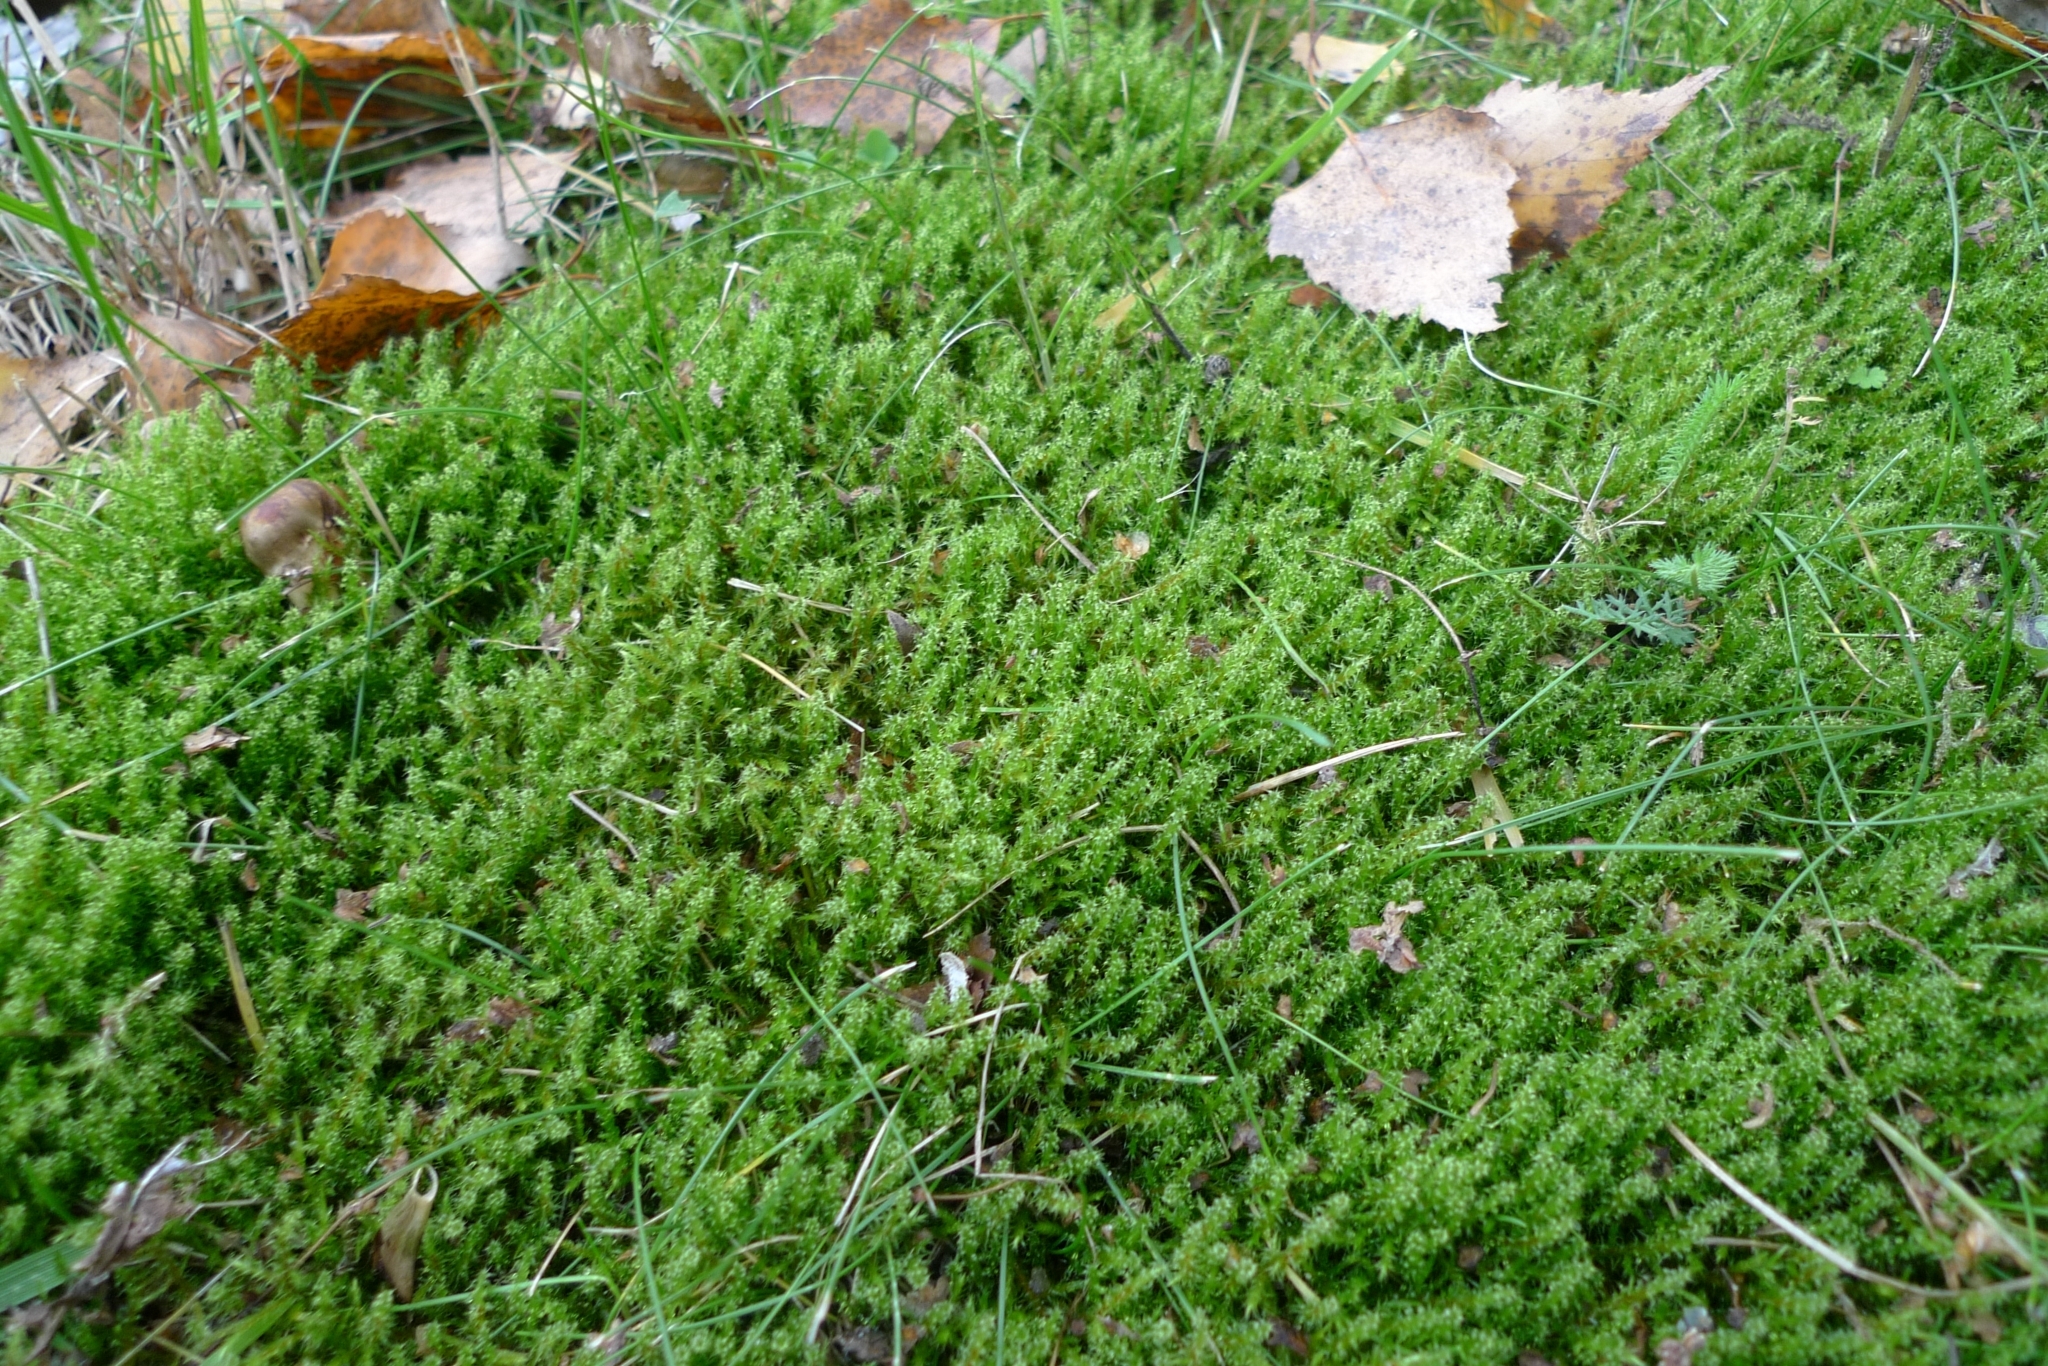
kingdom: Plantae
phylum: Bryophyta
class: Bryopsida
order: Hypnales
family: Hylocomiaceae
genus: Rhytidiadelphus
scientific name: Rhytidiadelphus squarrosus
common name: Springy turf-moss
